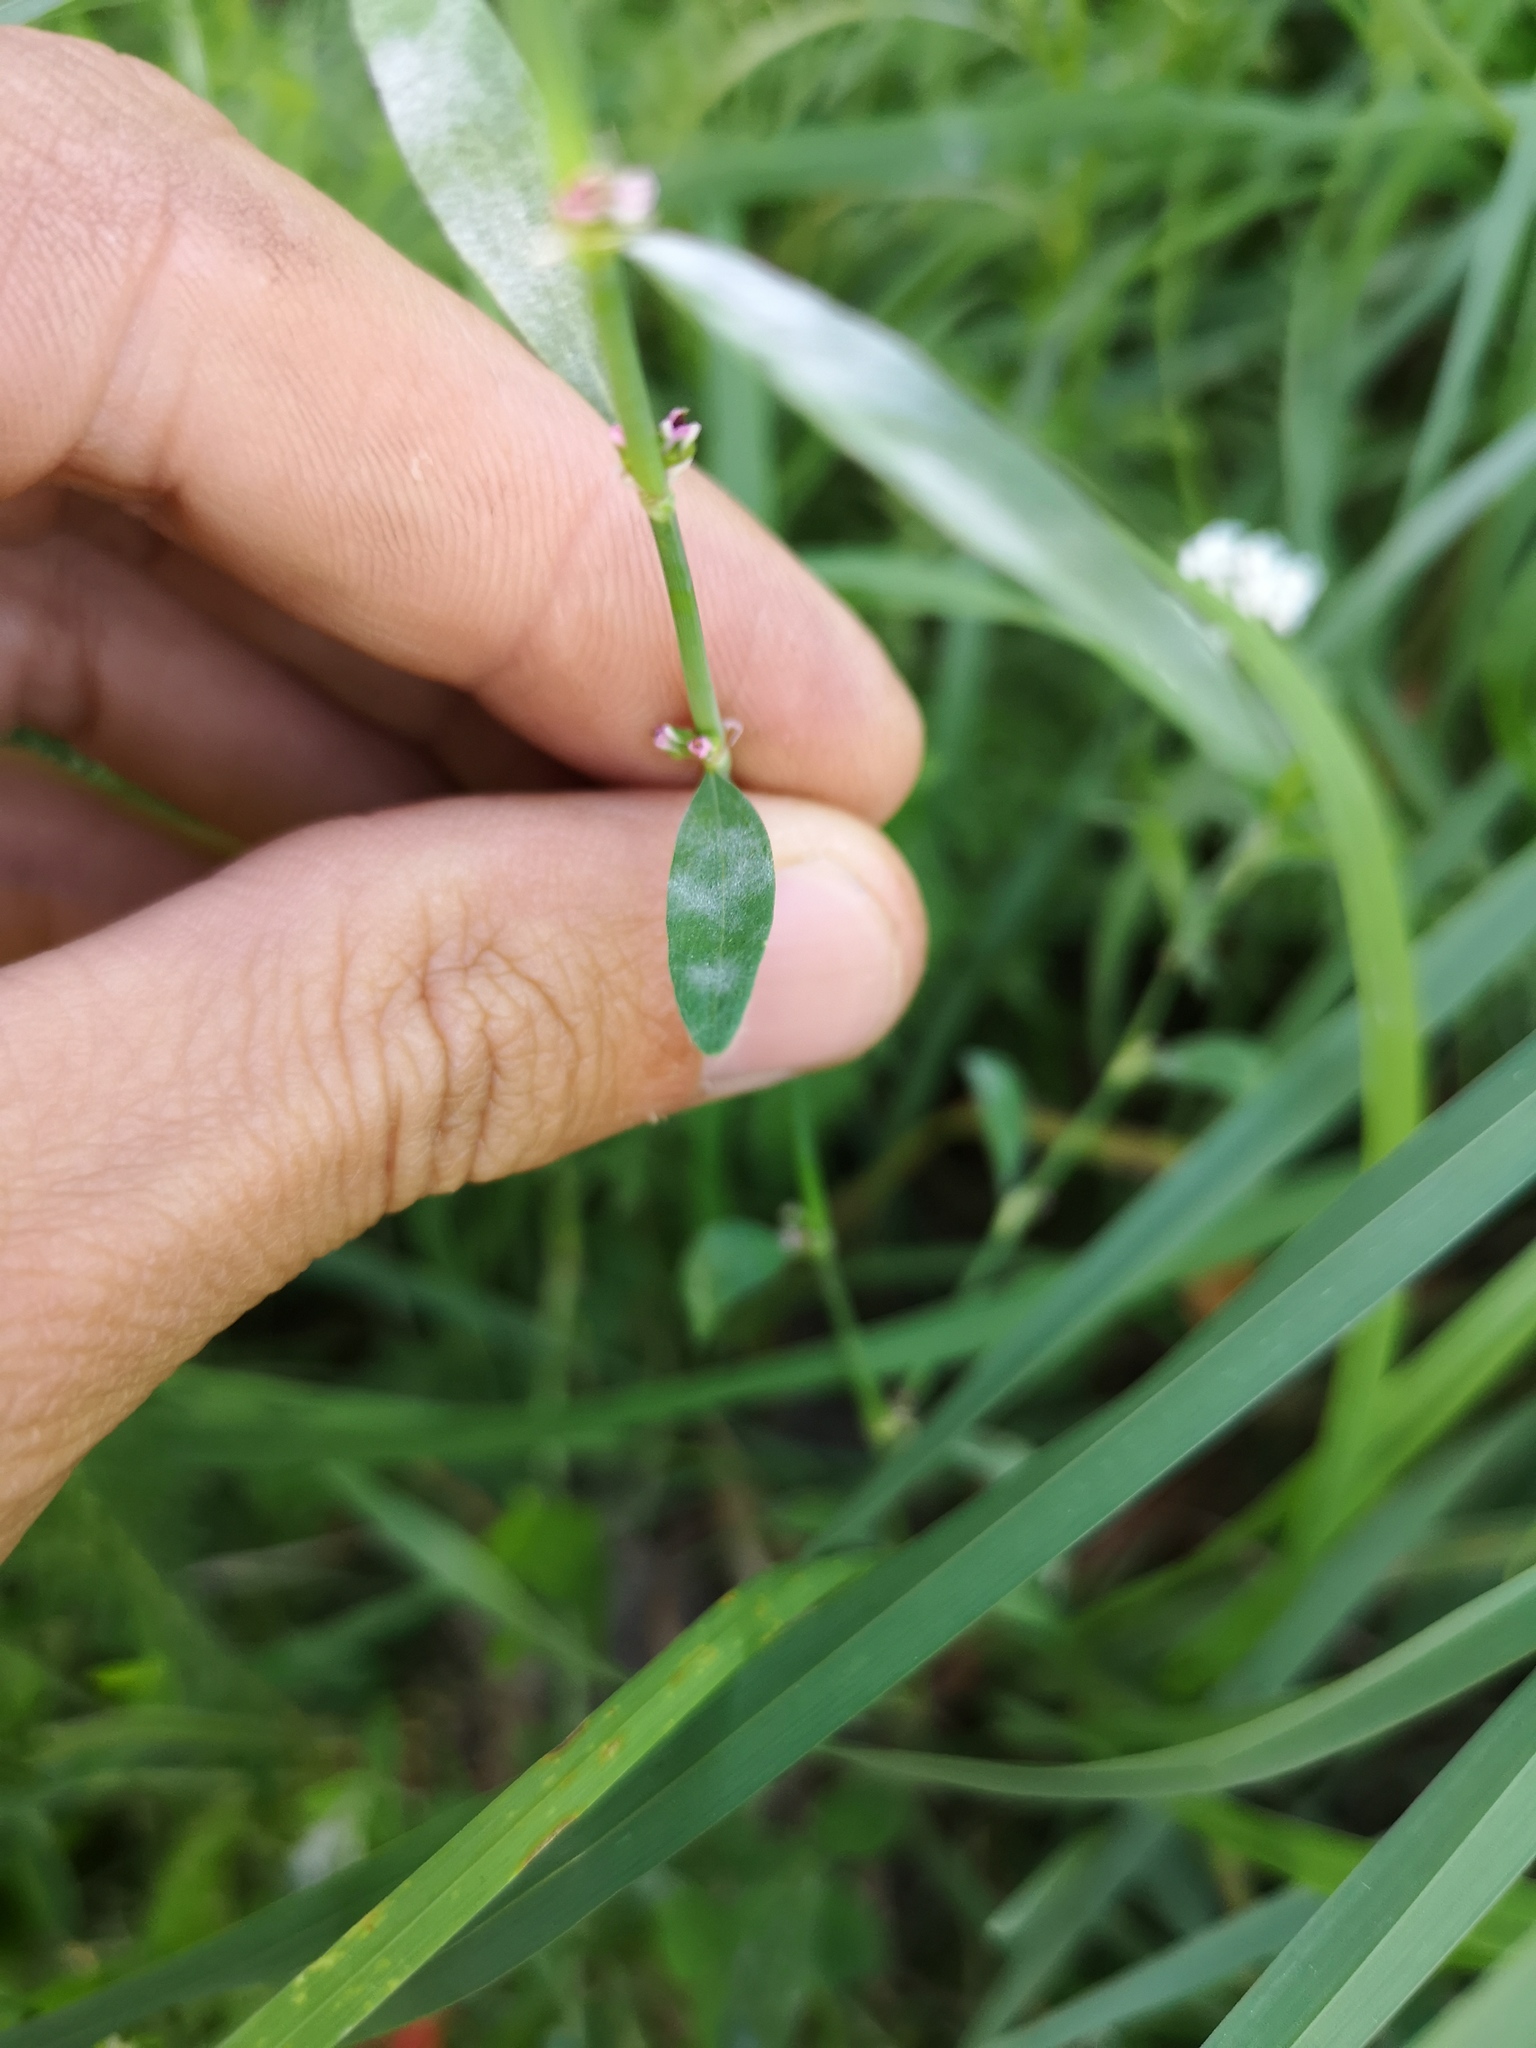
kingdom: Plantae
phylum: Tracheophyta
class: Magnoliopsida
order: Caryophyllales
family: Polygonaceae
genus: Polygonum
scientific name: Polygonum aviculare
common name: Prostrate knotweed
